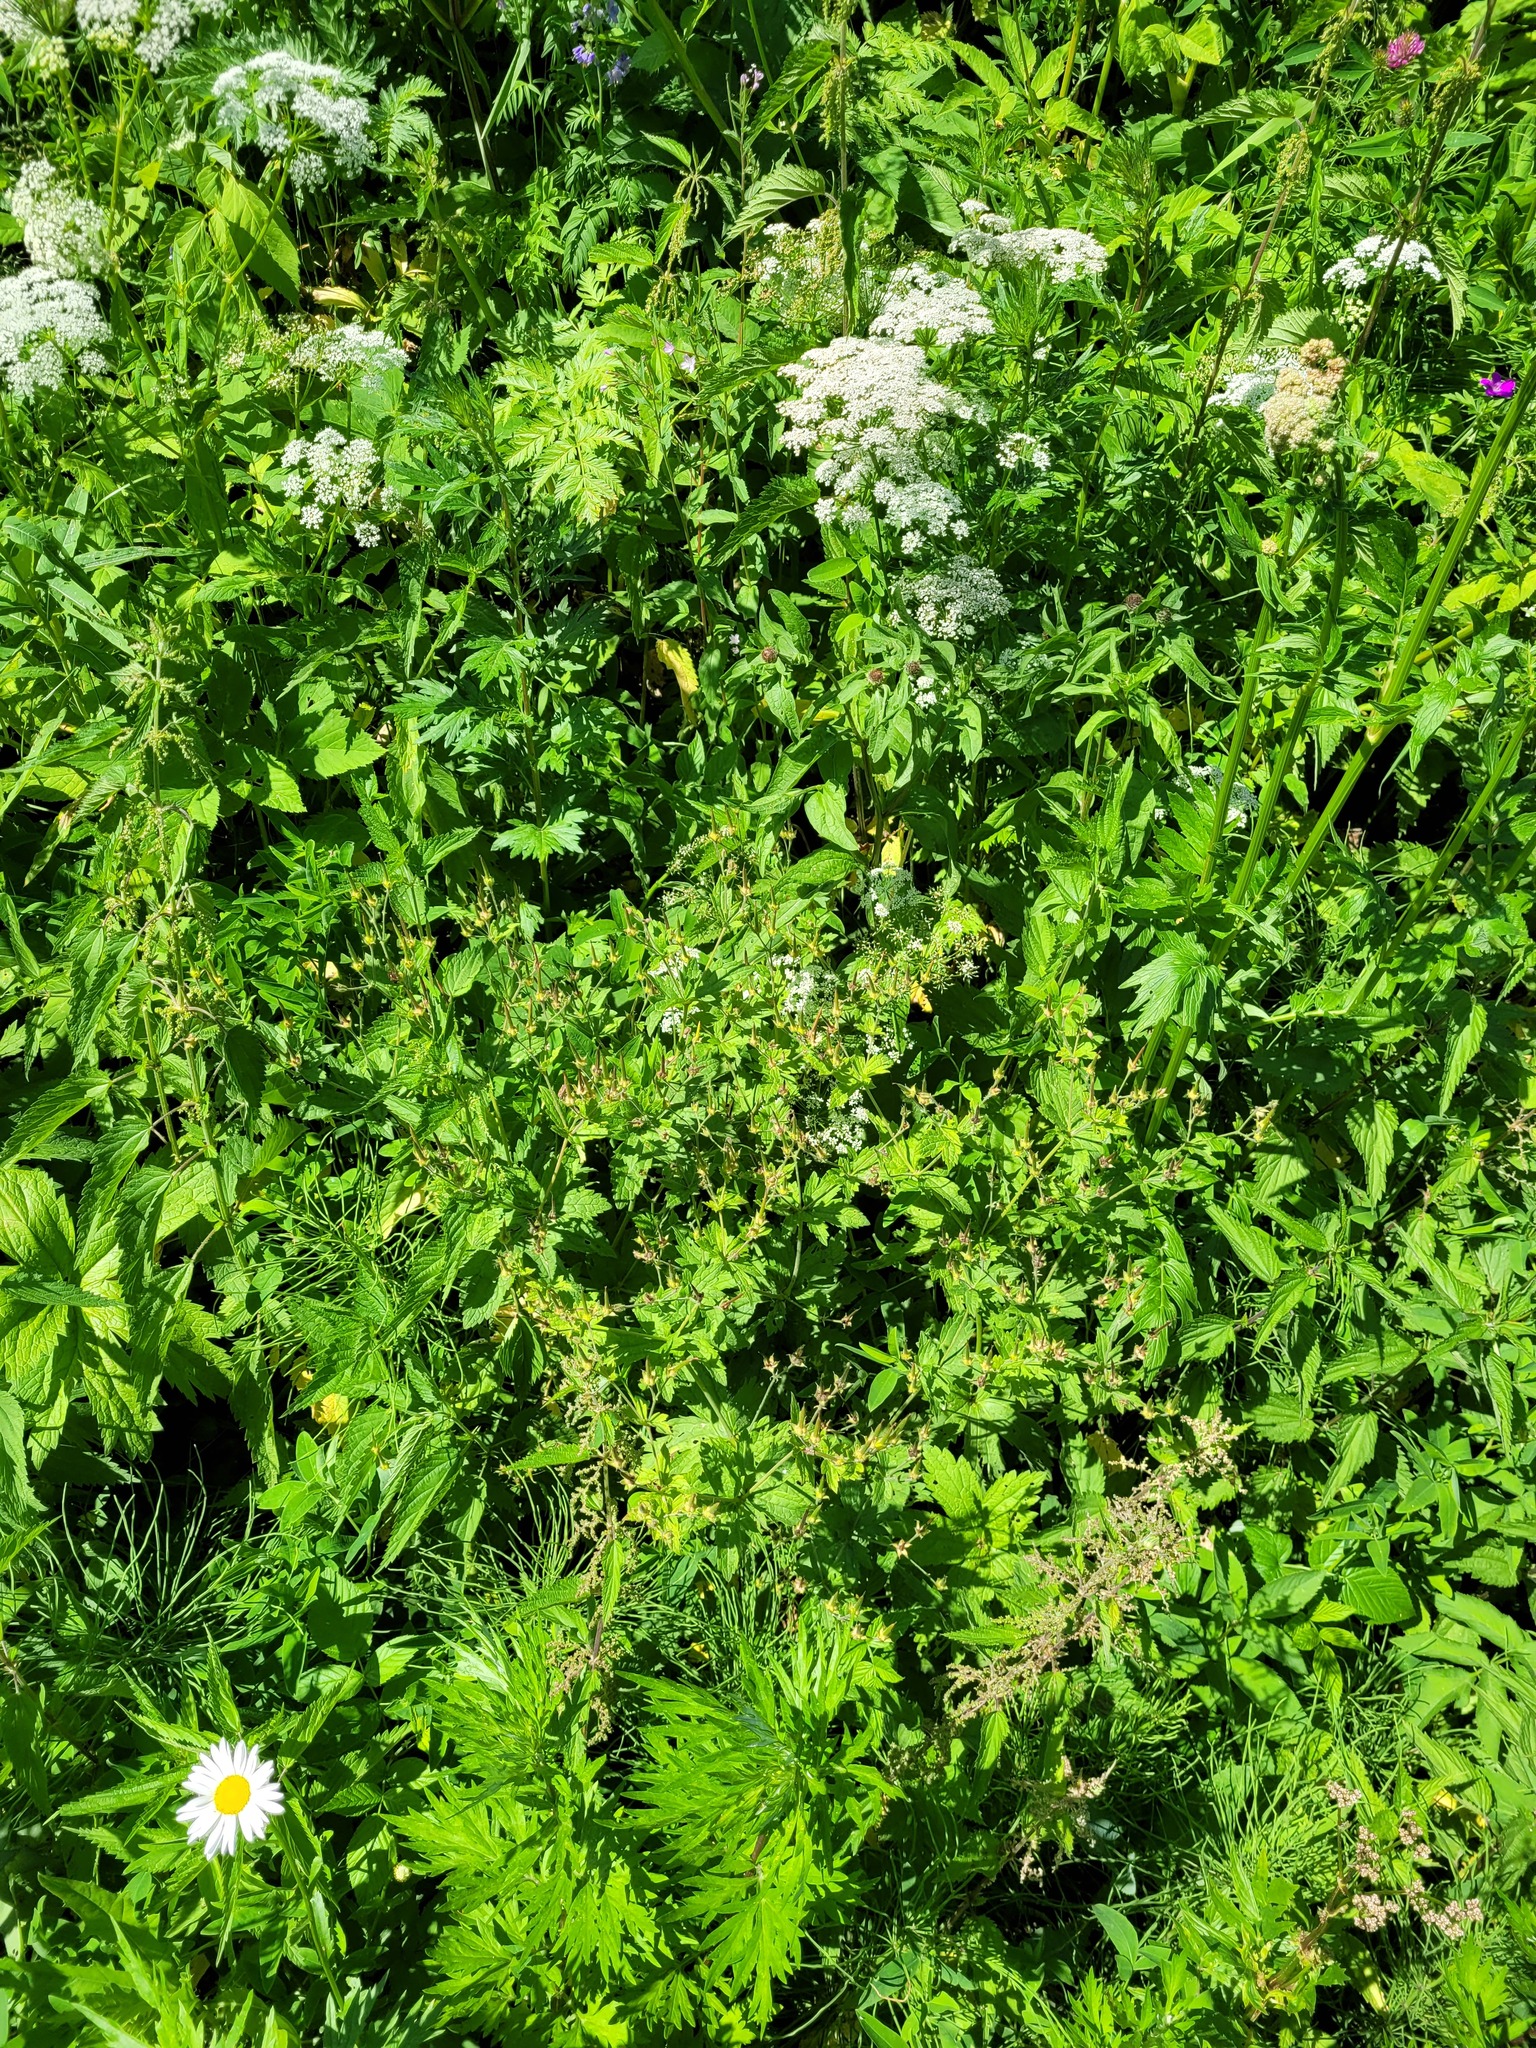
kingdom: Plantae
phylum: Tracheophyta
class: Magnoliopsida
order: Geraniales
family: Geraniaceae
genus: Geranium
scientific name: Geranium sylvaticum
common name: Wood crane's-bill
